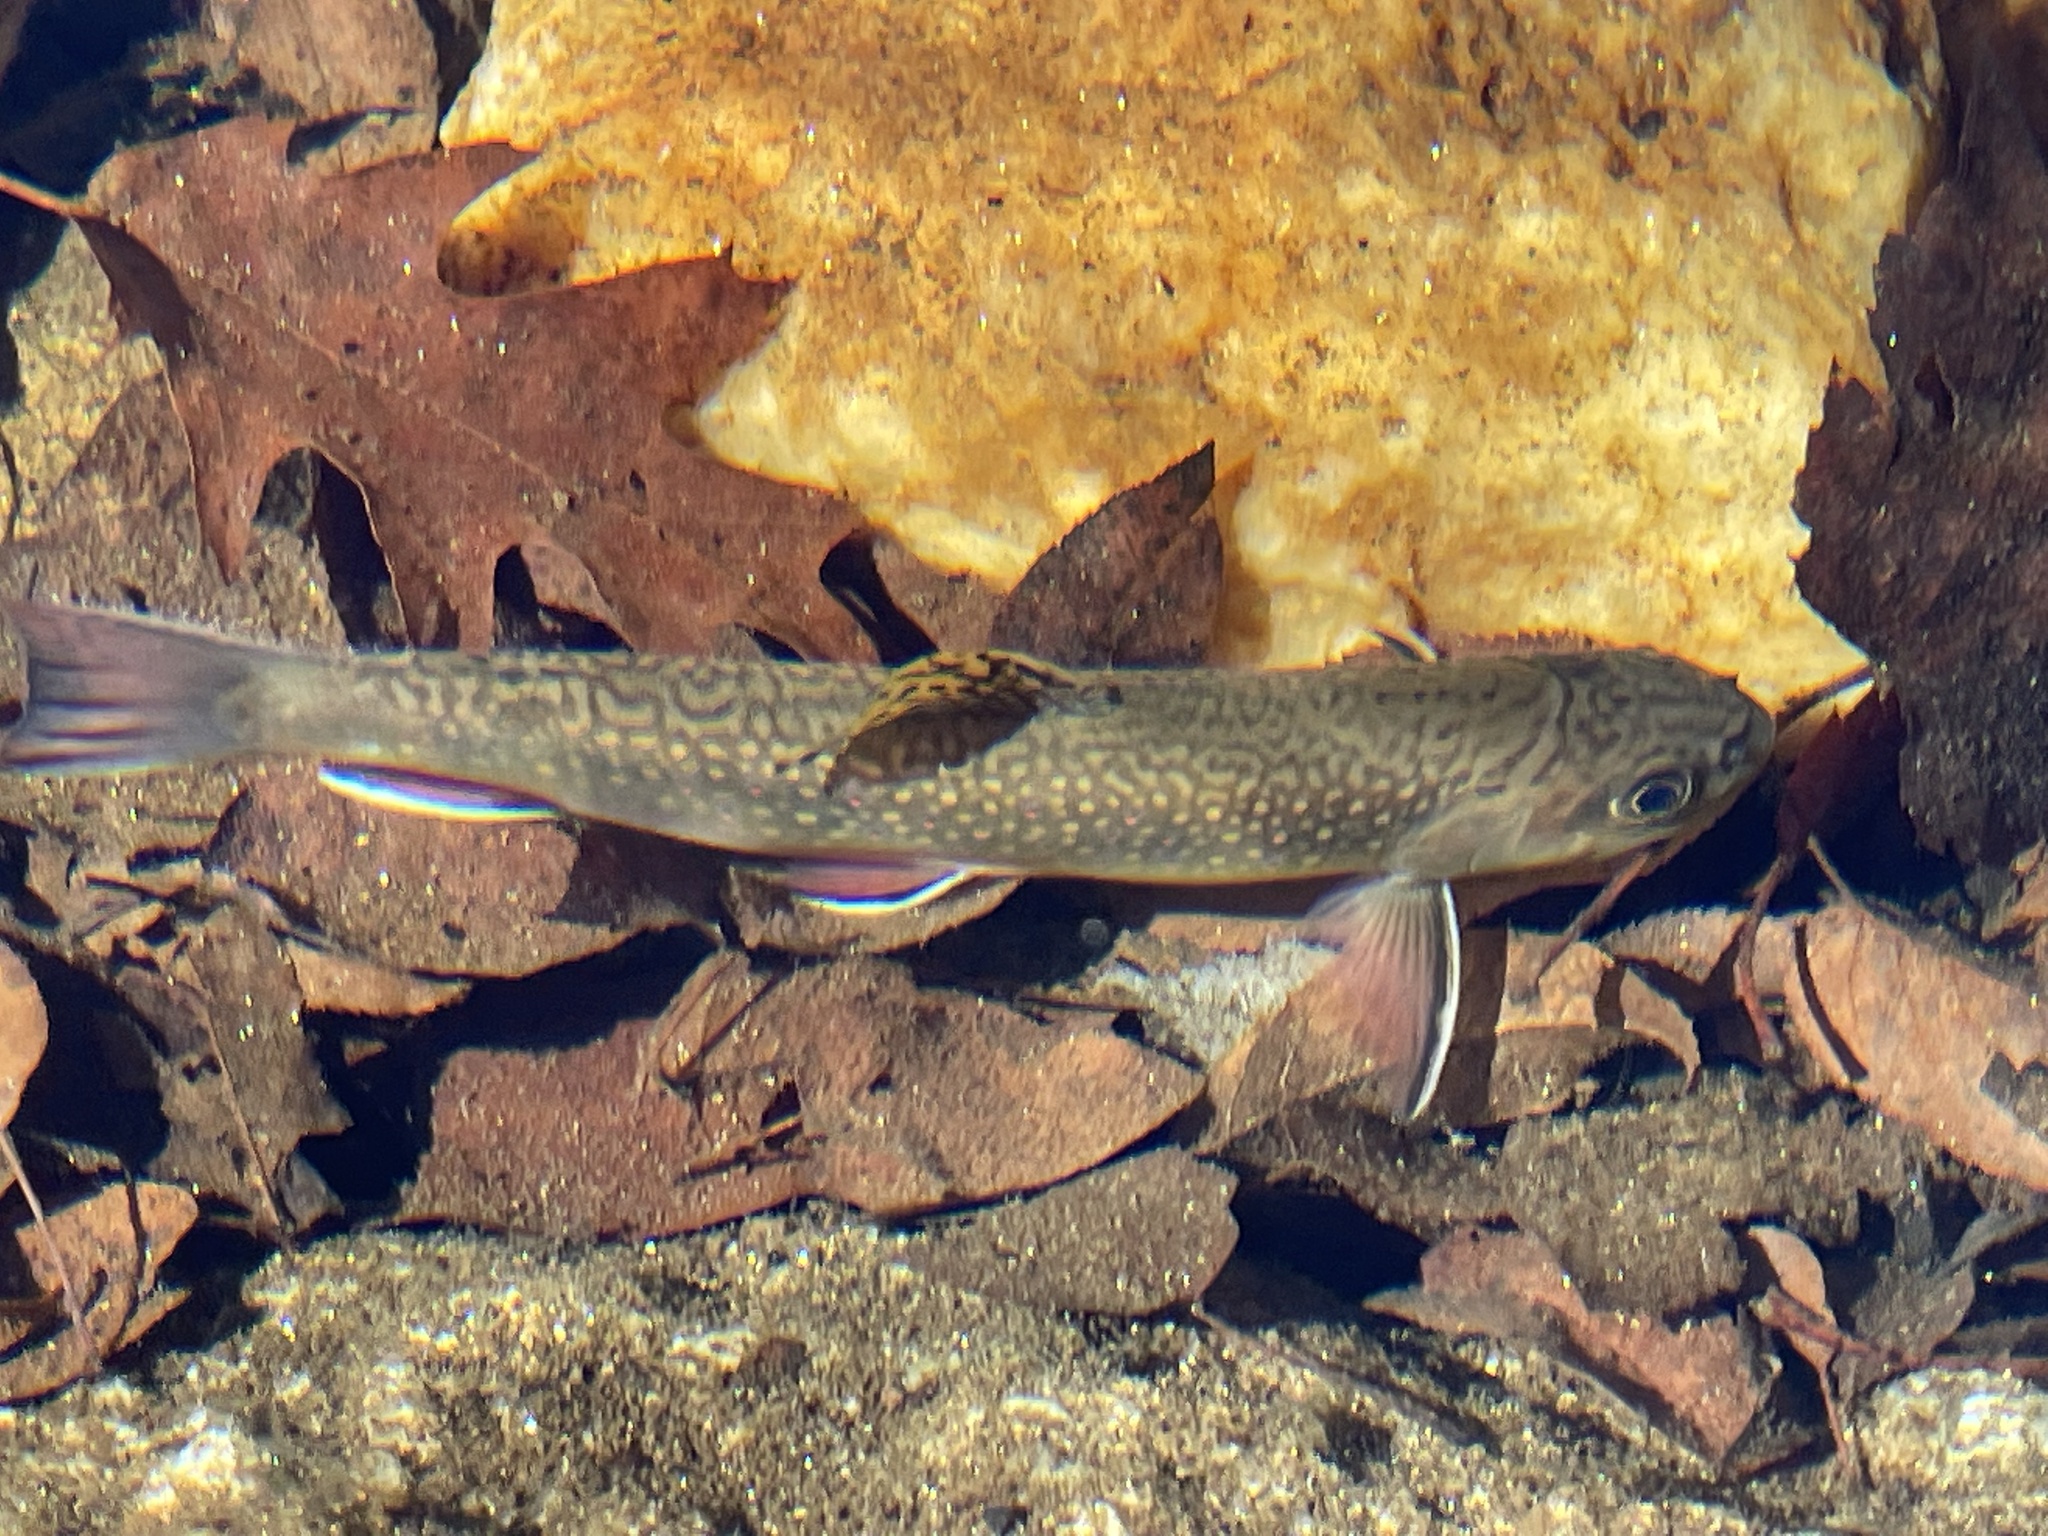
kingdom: Animalia
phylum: Chordata
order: Salmoniformes
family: Salmonidae
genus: Salvelinus
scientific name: Salvelinus fontinalis
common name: Brook trout
